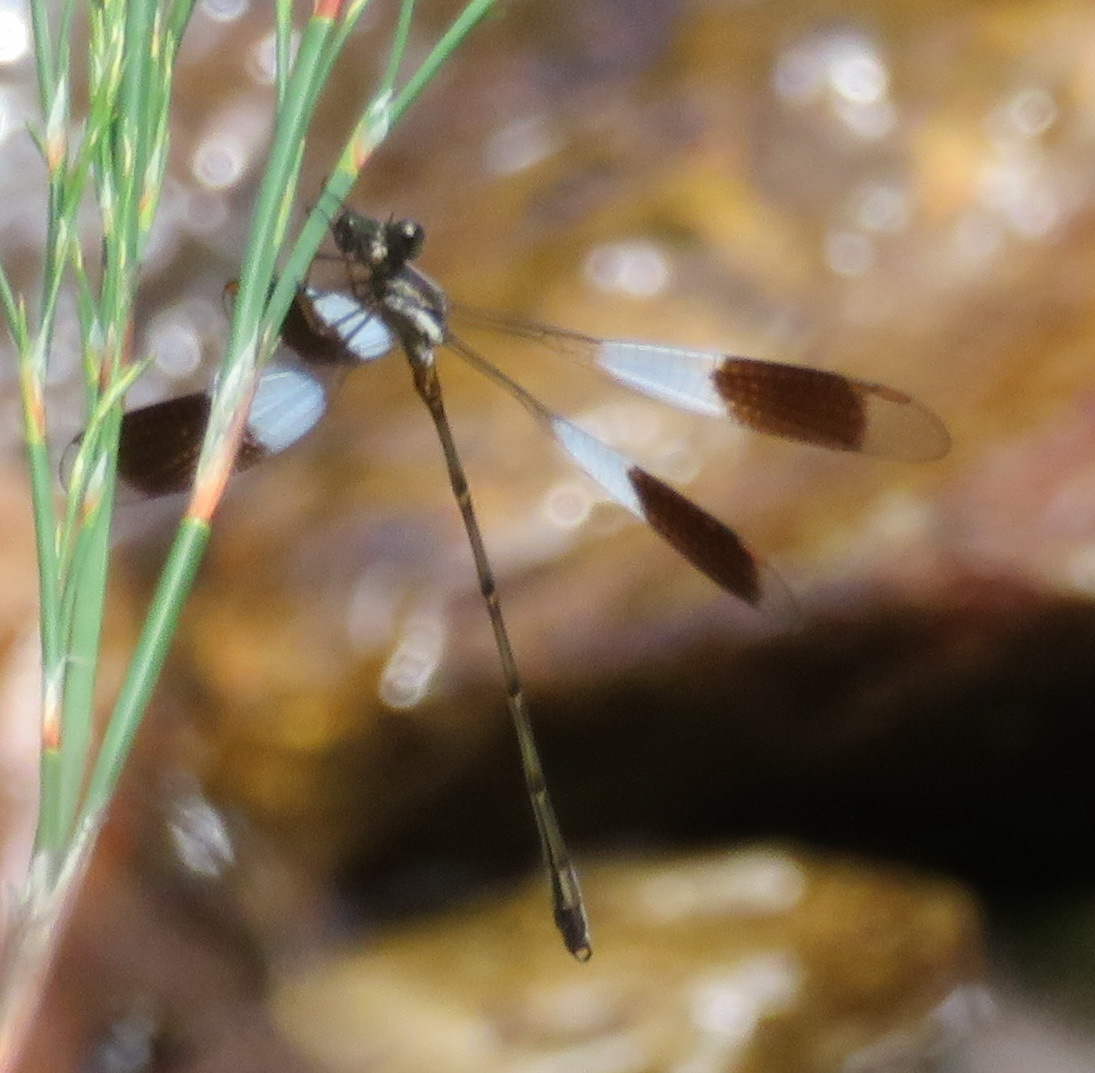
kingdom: Animalia
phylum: Arthropoda
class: Insecta
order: Odonata
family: Synlestidae
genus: Chlorolestes
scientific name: Chlorolestes umbratus
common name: White malachite
